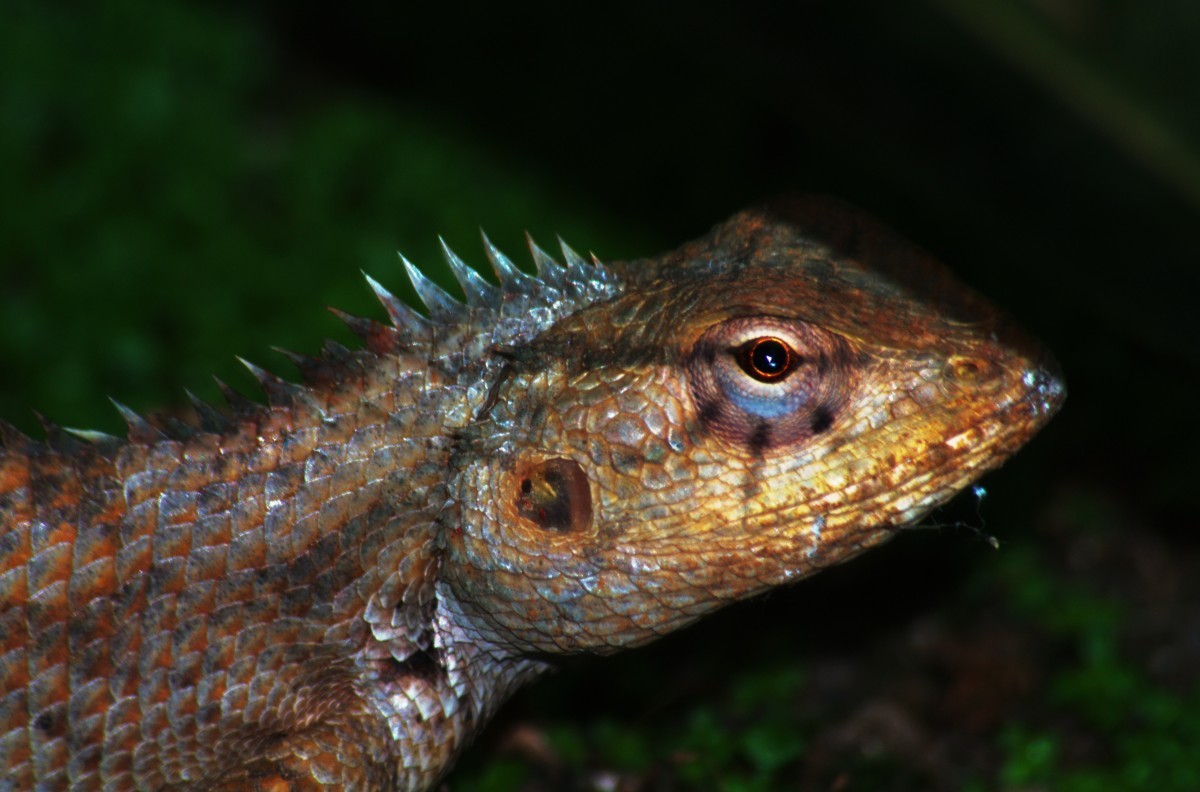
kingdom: Animalia
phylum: Chordata
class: Squamata
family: Agamidae
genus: Calotes
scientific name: Calotes versicolor
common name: Oriental garden lizard
